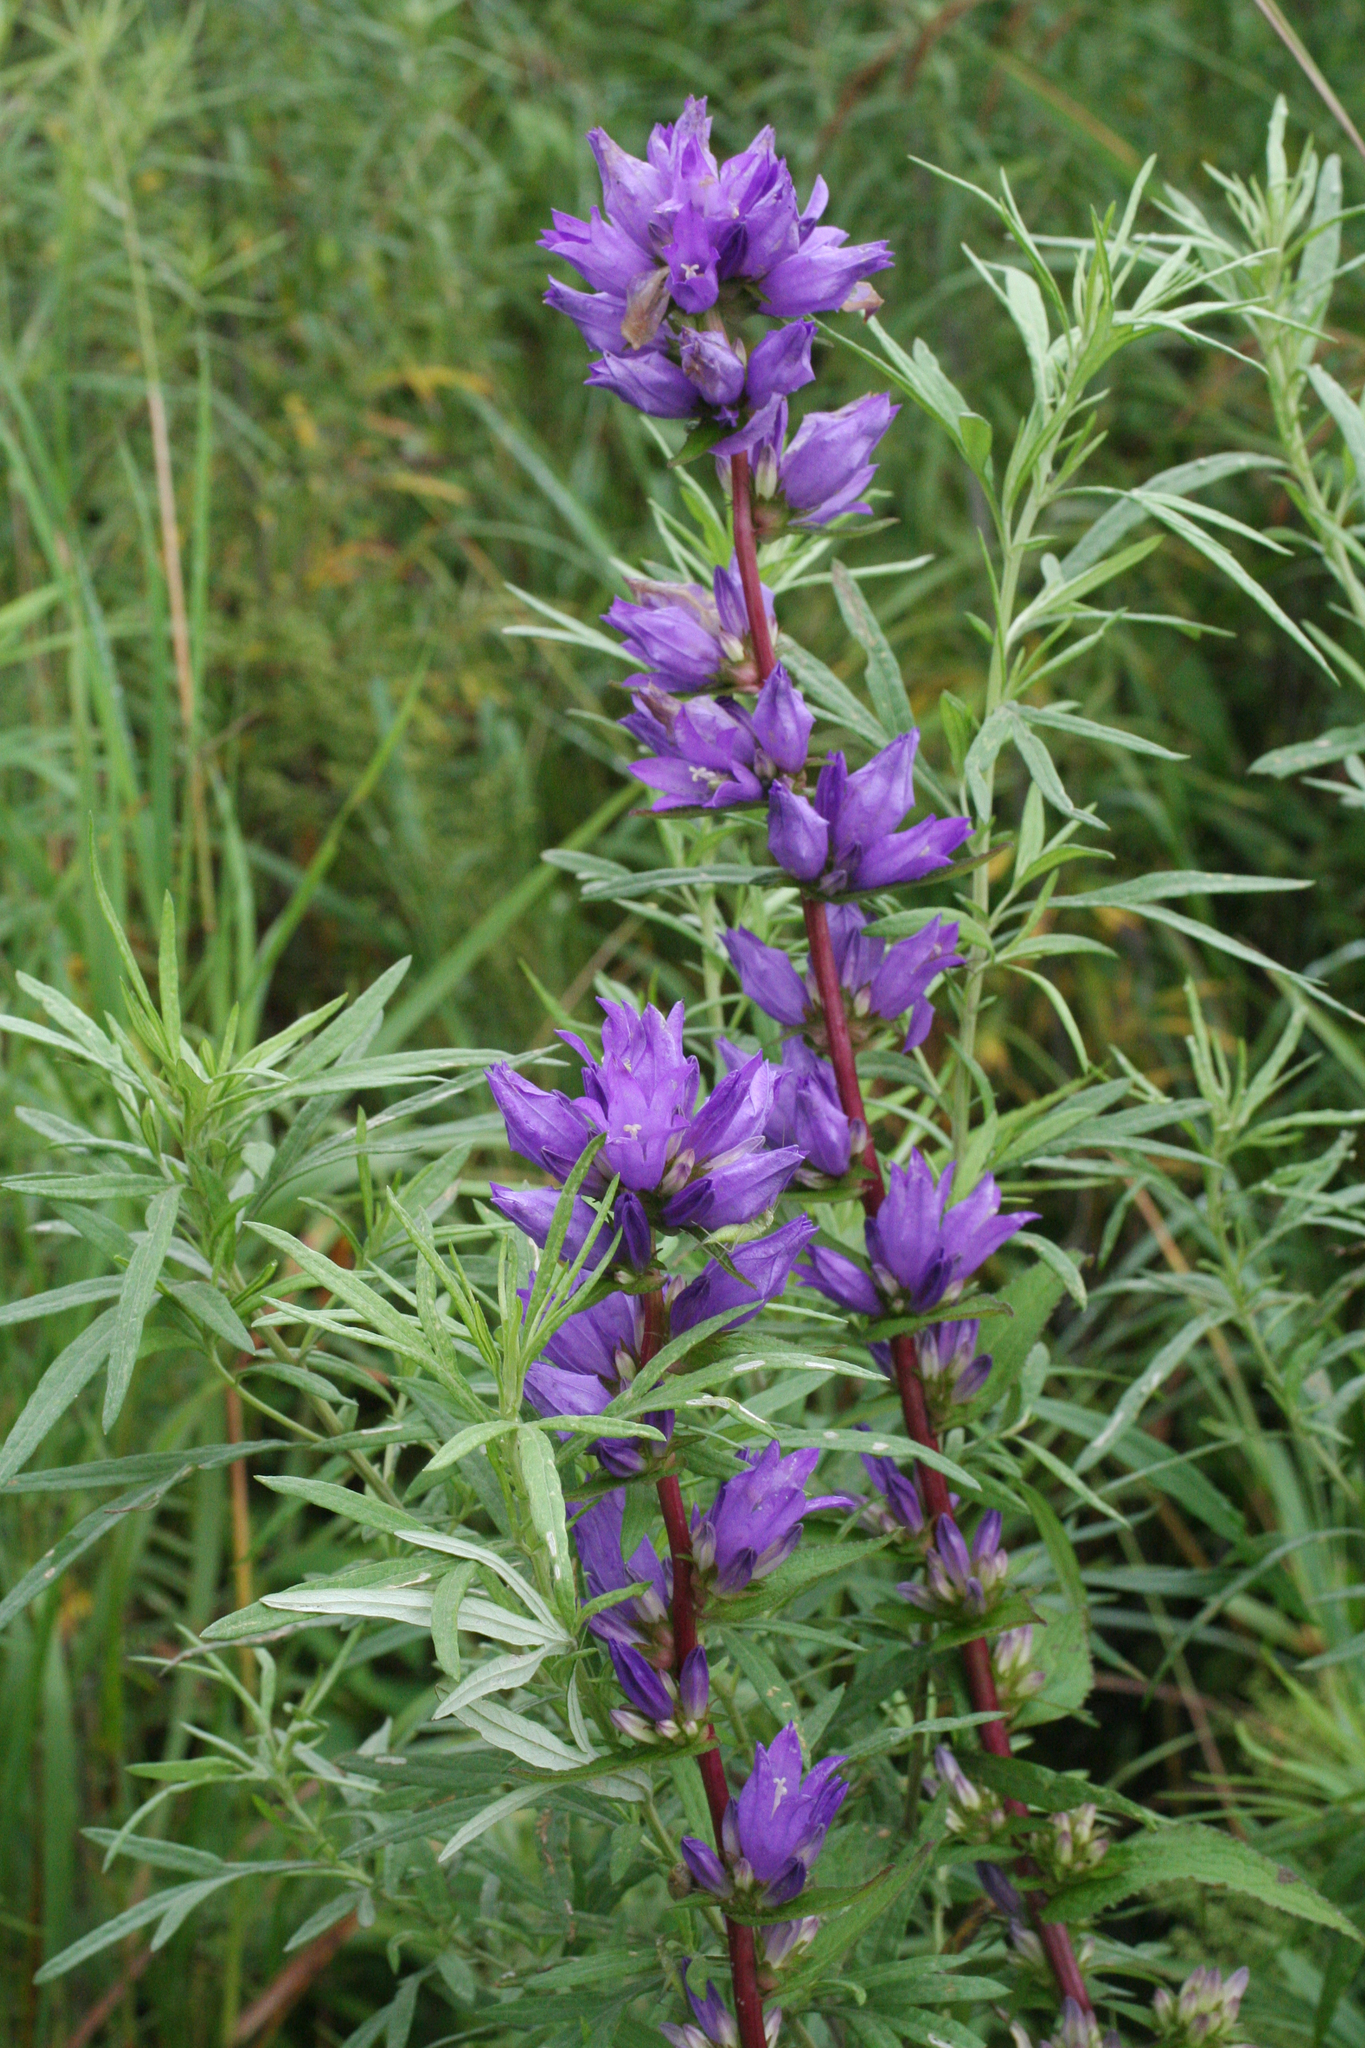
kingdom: Plantae
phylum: Tracheophyta
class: Magnoliopsida
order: Asterales
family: Campanulaceae
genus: Campanula
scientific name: Campanula glomerata
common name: Clustered bellflower
